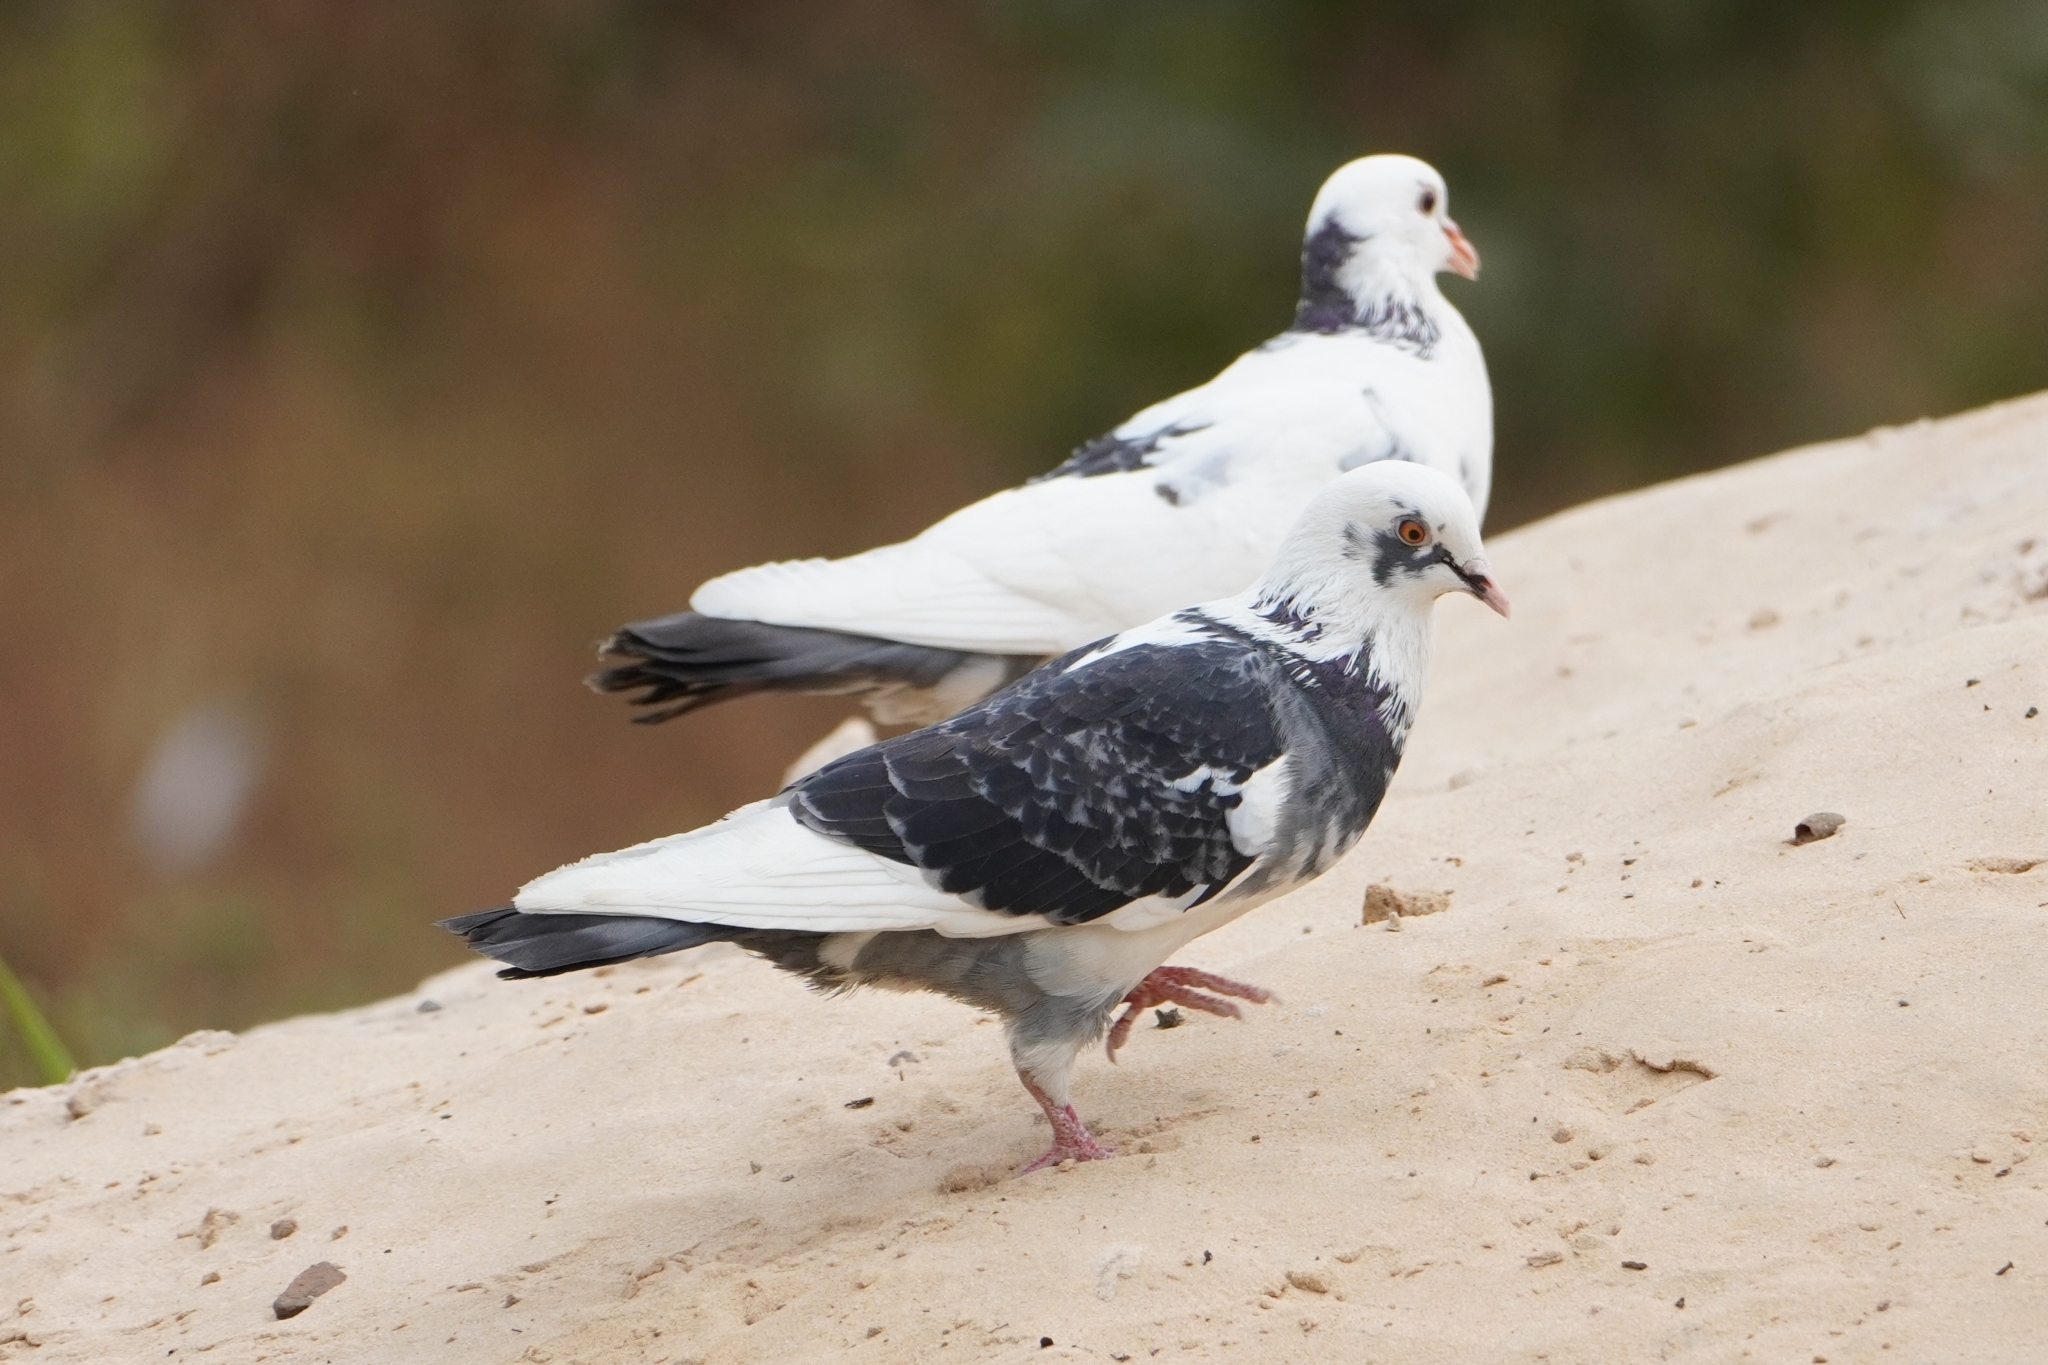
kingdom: Animalia
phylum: Chordata
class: Aves
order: Columbiformes
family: Columbidae
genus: Columba
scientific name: Columba livia
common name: Rock pigeon
